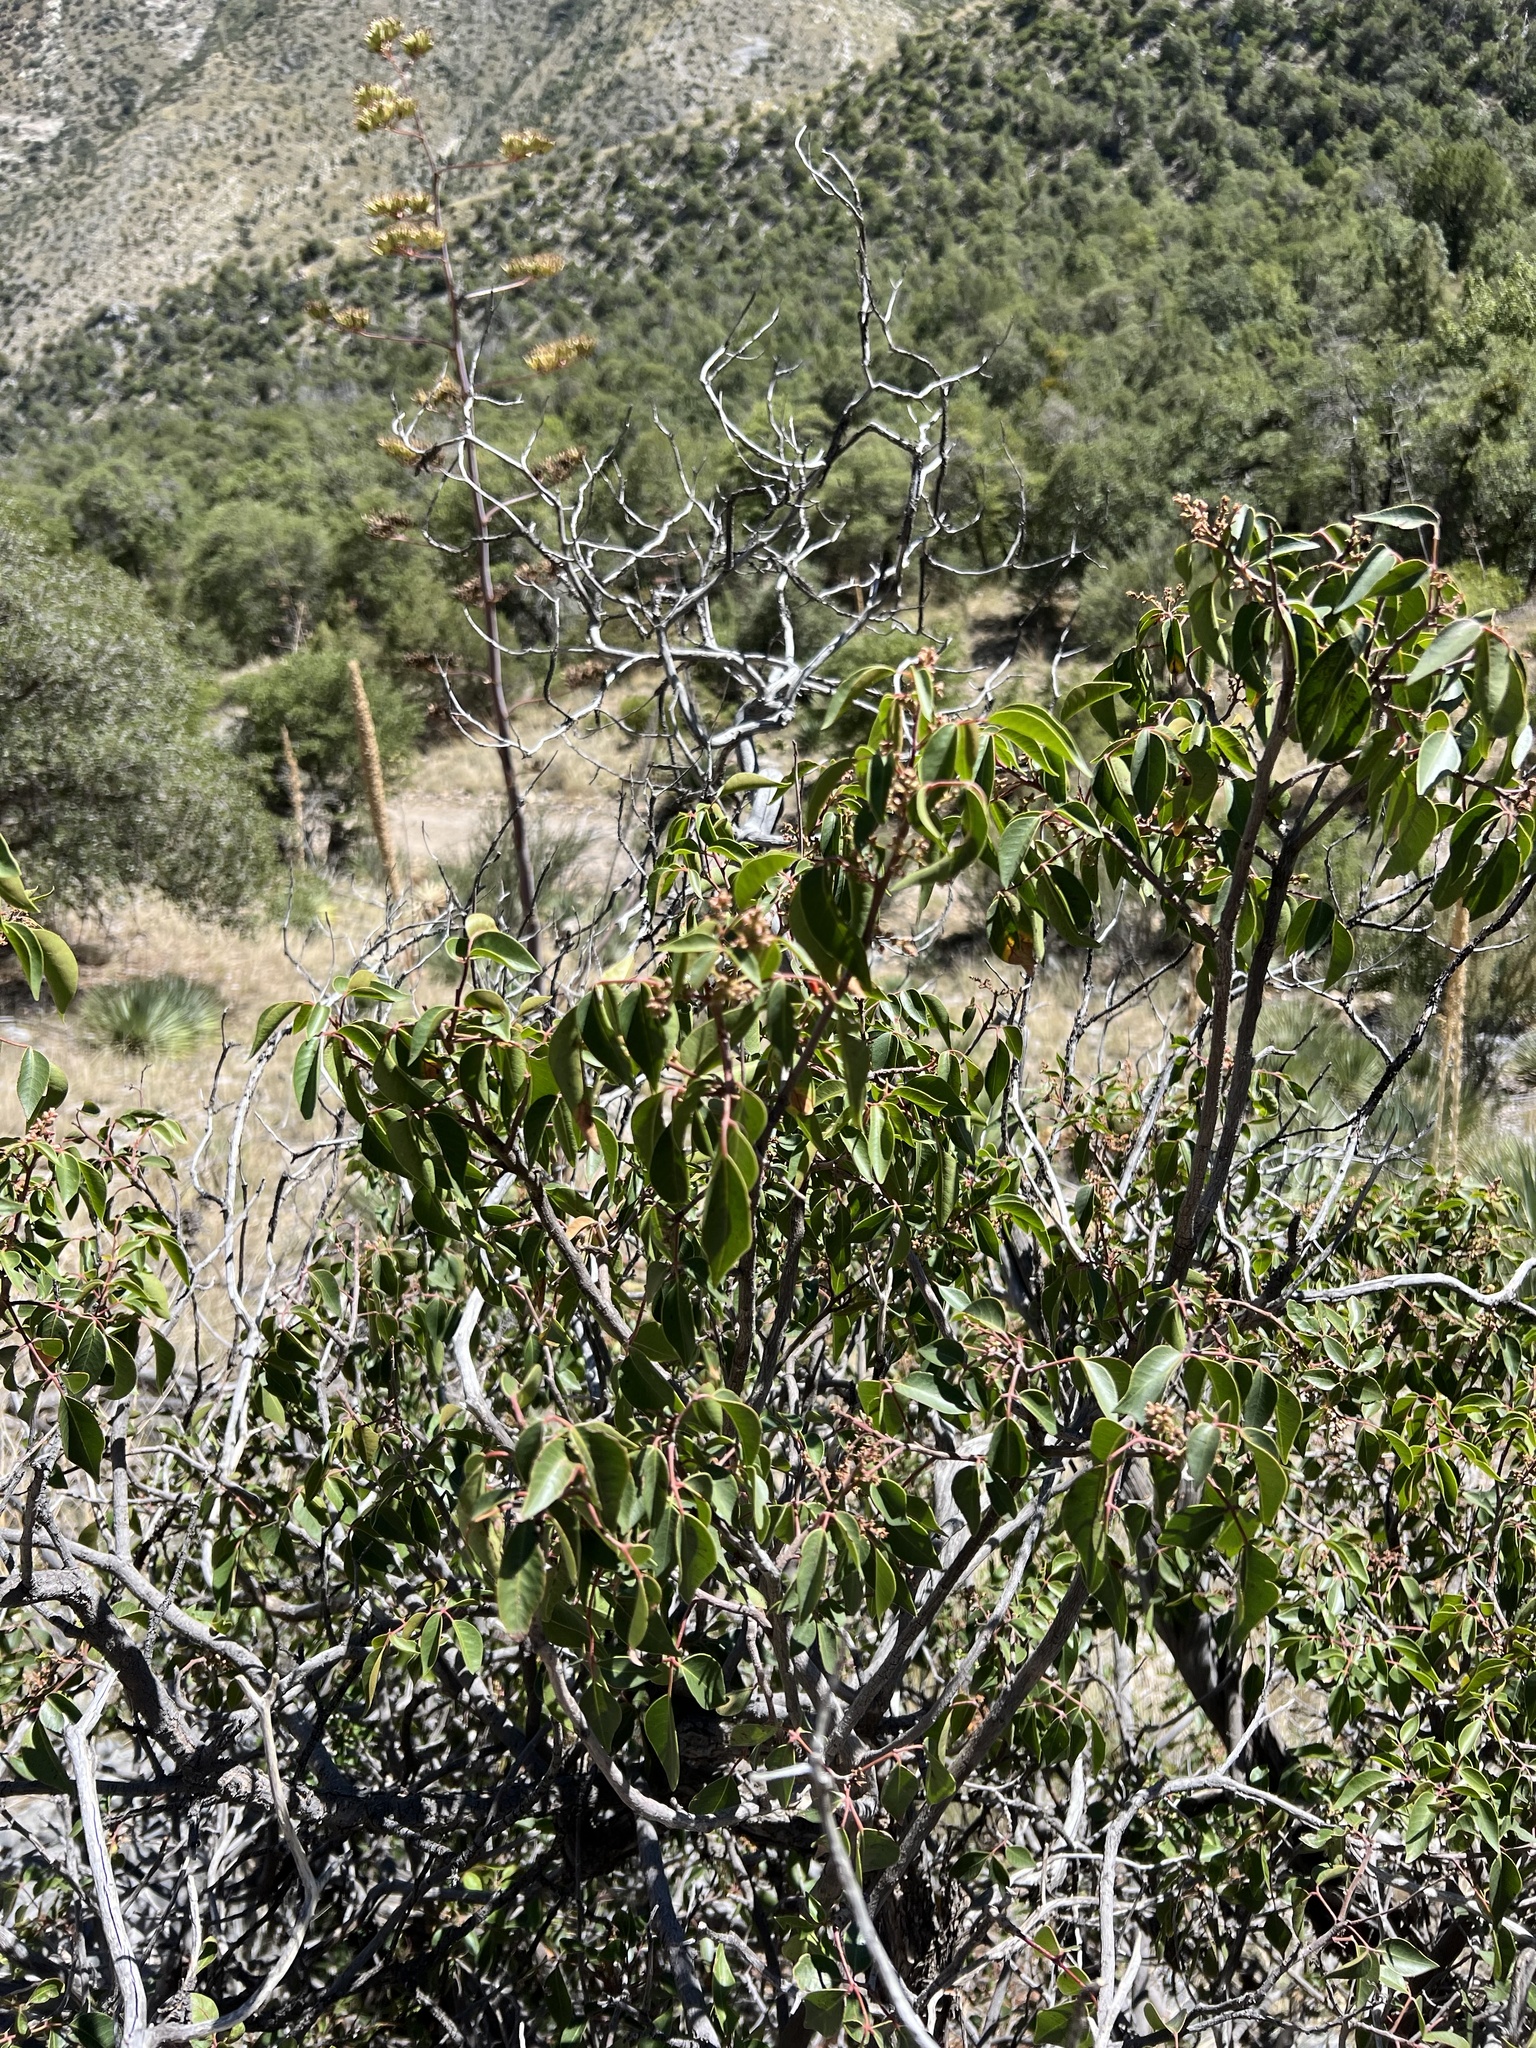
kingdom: Plantae
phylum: Tracheophyta
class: Magnoliopsida
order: Sapindales
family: Anacardiaceae
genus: Rhus
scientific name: Rhus virens
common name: Evergreen sumac
